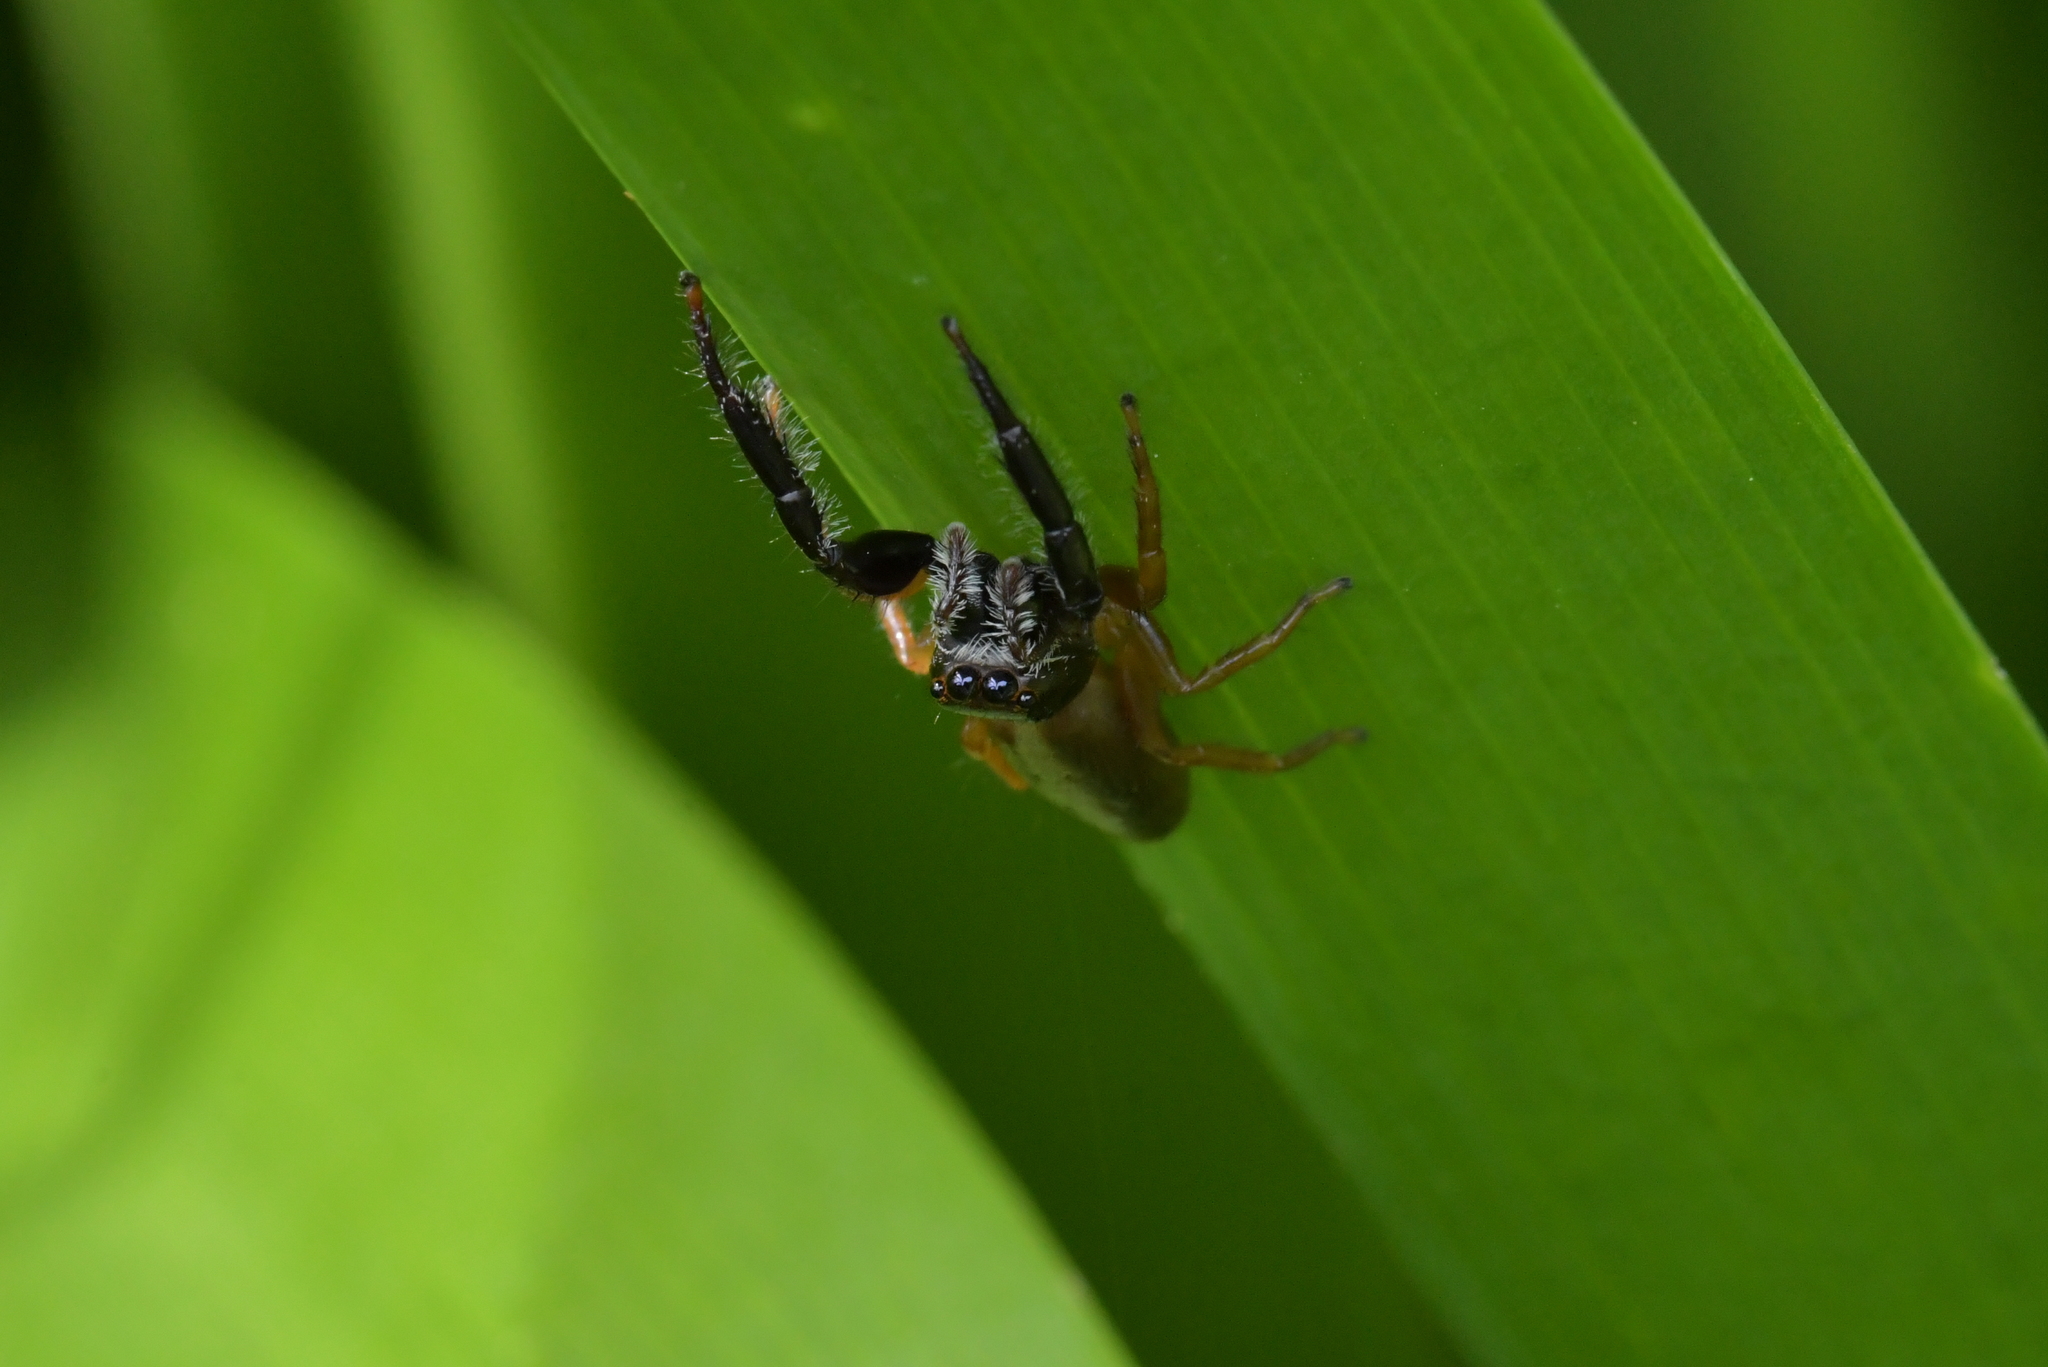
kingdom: Animalia
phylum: Arthropoda
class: Arachnida
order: Araneae
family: Salticidae
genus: Trite
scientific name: Trite planiceps
